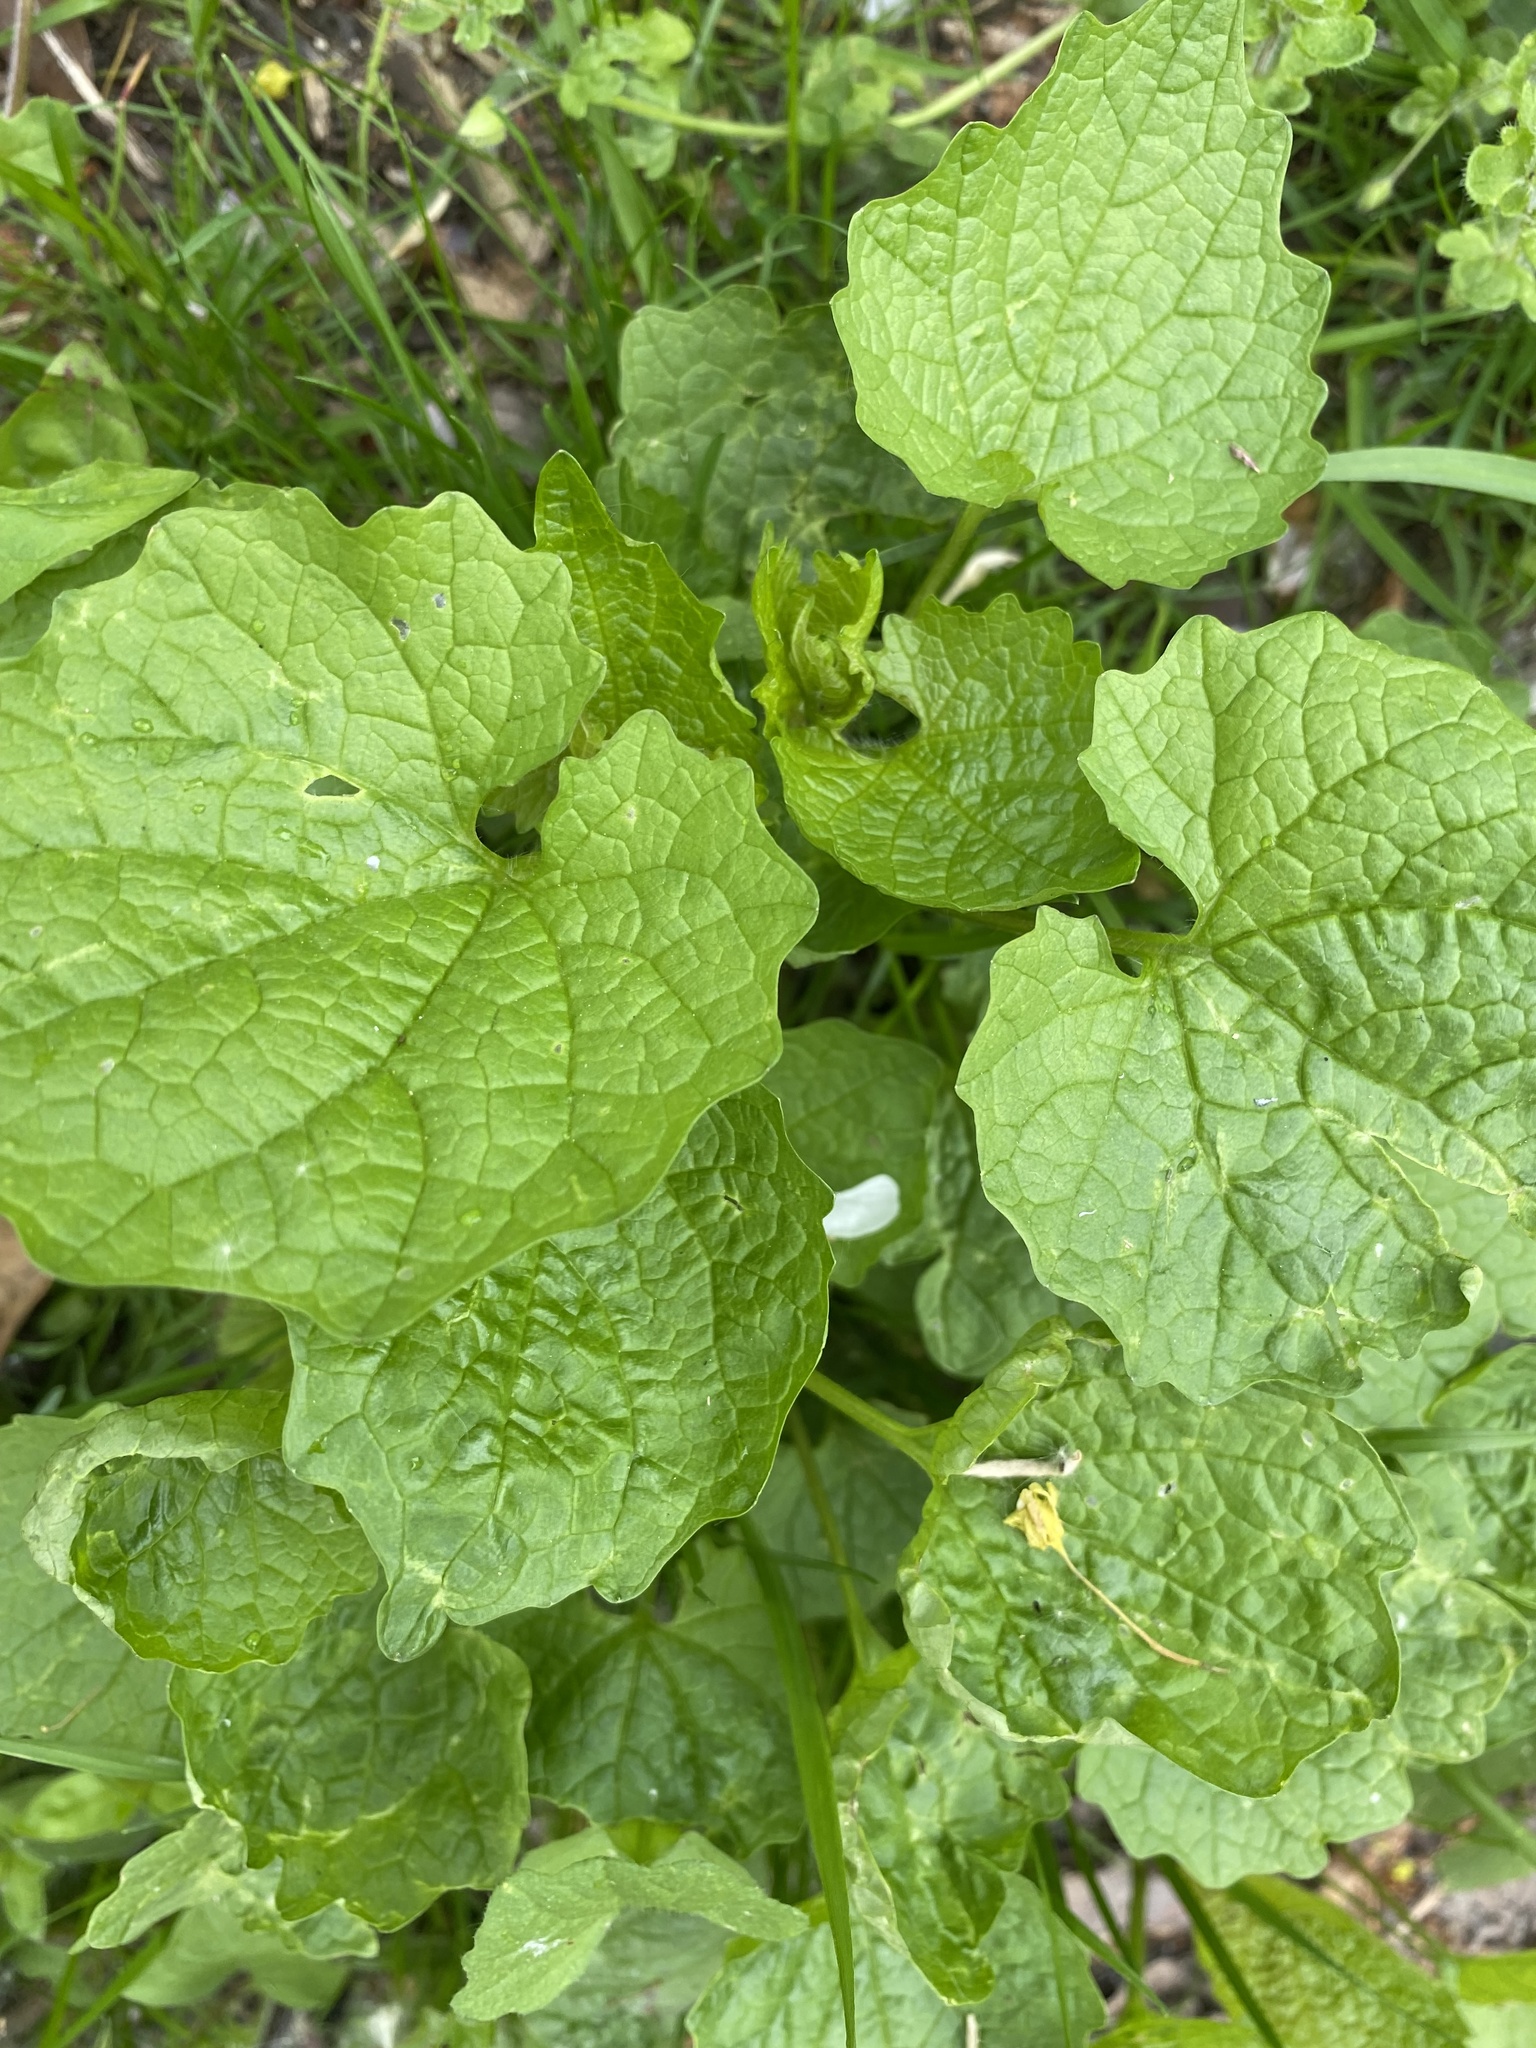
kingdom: Plantae
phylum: Tracheophyta
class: Magnoliopsida
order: Brassicales
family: Brassicaceae
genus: Alliaria
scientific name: Alliaria petiolata
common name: Garlic mustard
